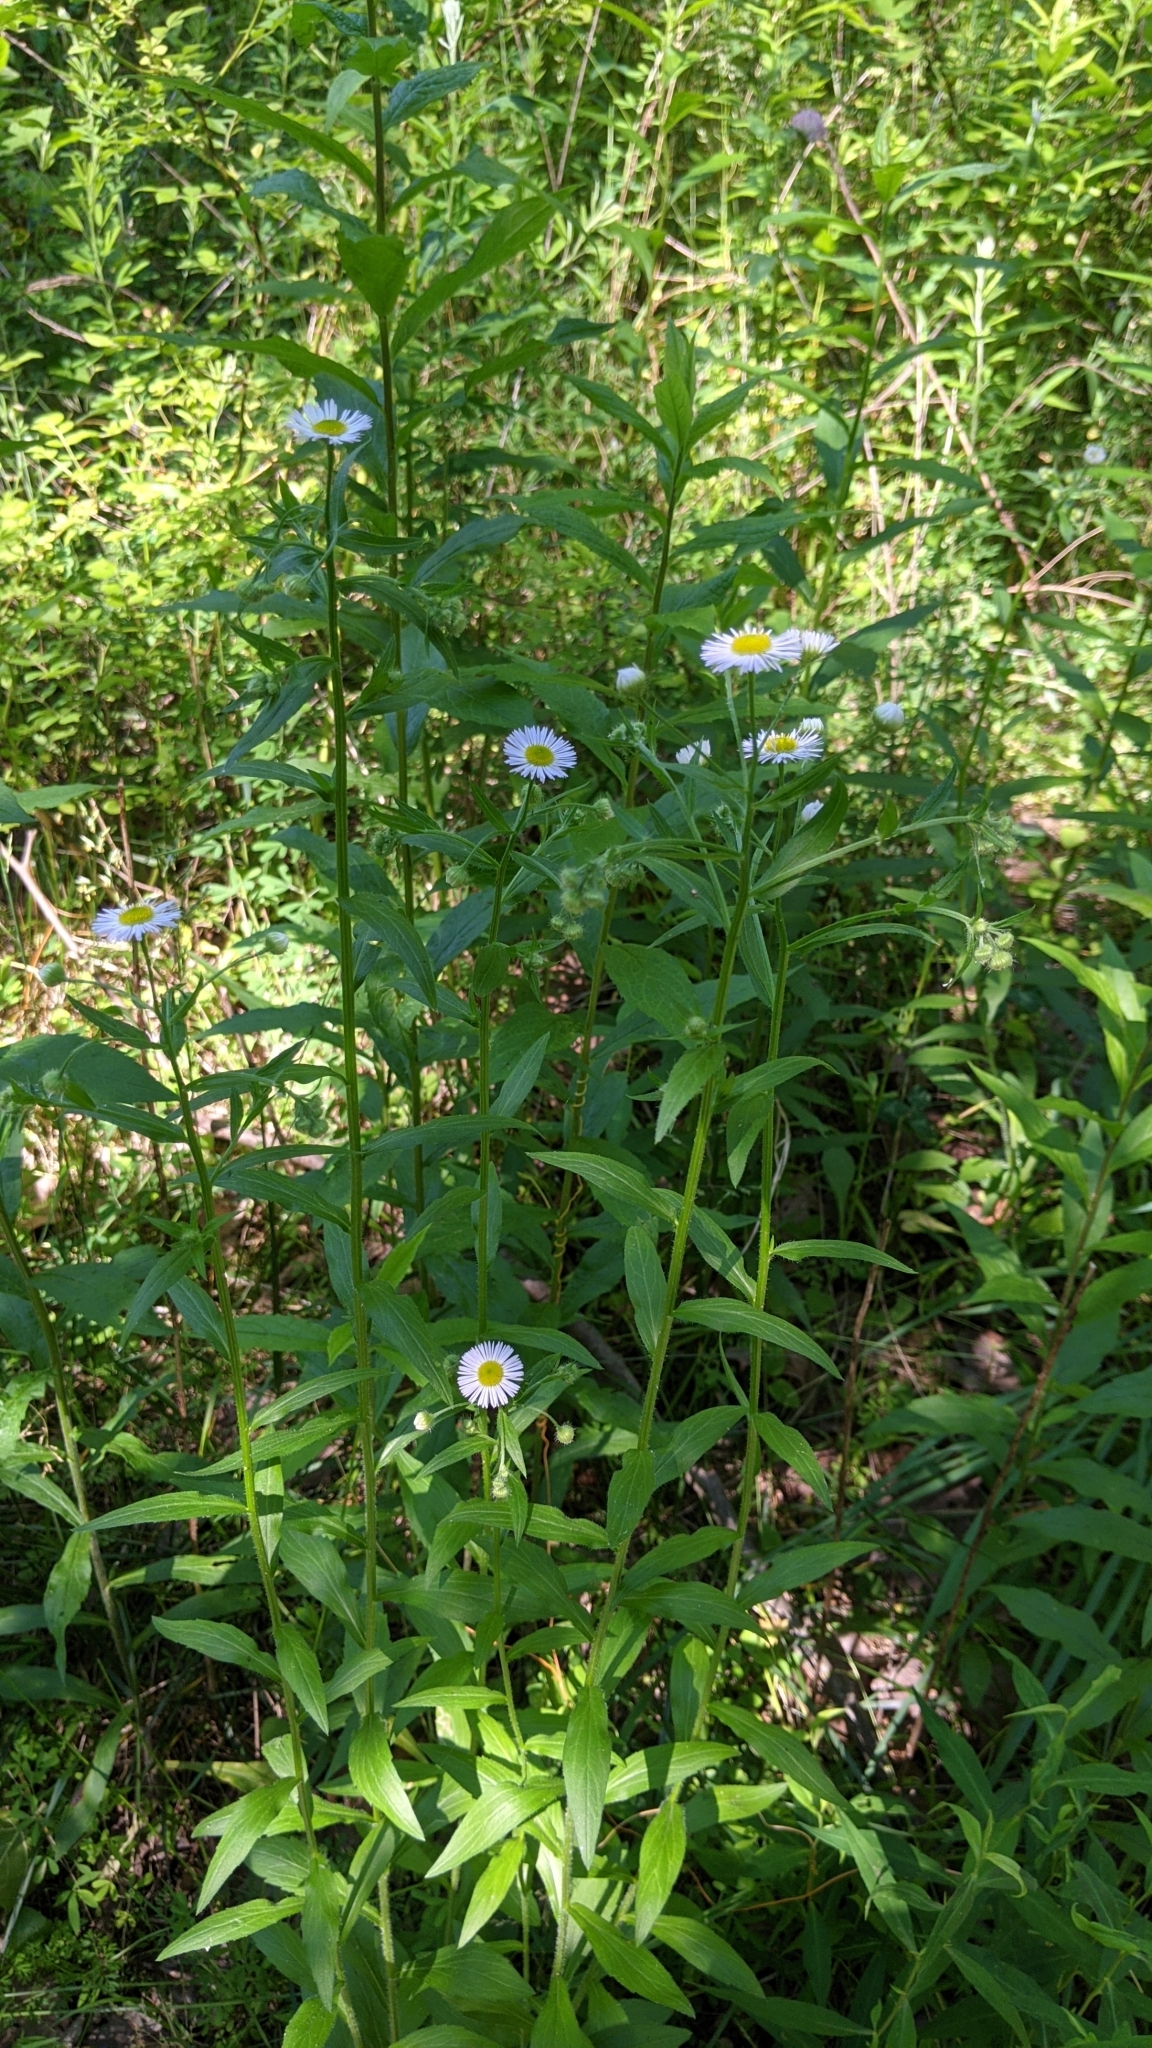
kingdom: Plantae
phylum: Tracheophyta
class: Magnoliopsida
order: Asterales
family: Asteraceae
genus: Erigeron
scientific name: Erigeron strigosus
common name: Common eastern fleabane
